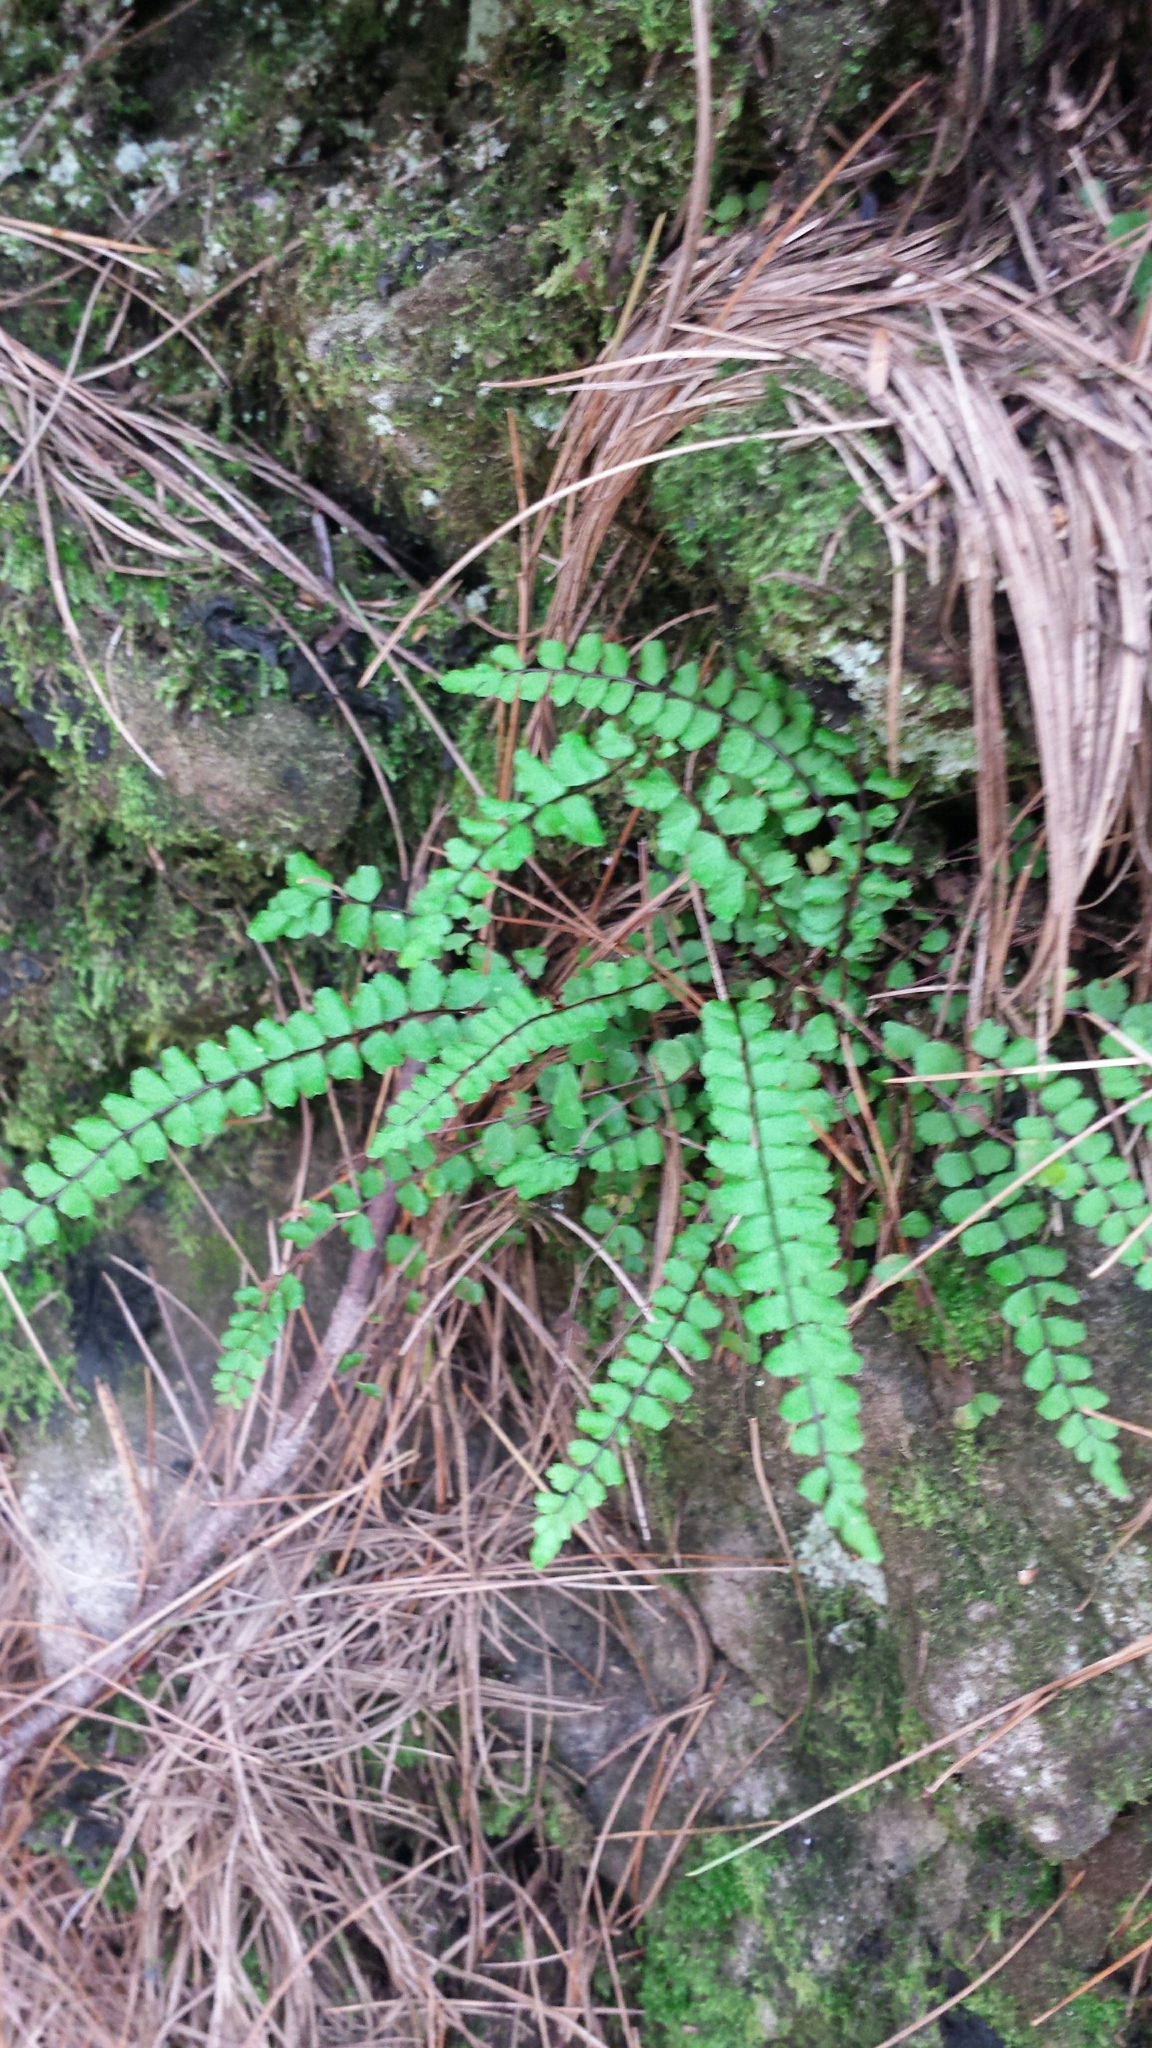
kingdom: Plantae
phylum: Tracheophyta
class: Polypodiopsida
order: Polypodiales
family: Aspleniaceae
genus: Asplenium
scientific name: Asplenium trichomanes
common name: Maidenhair spleenwort
